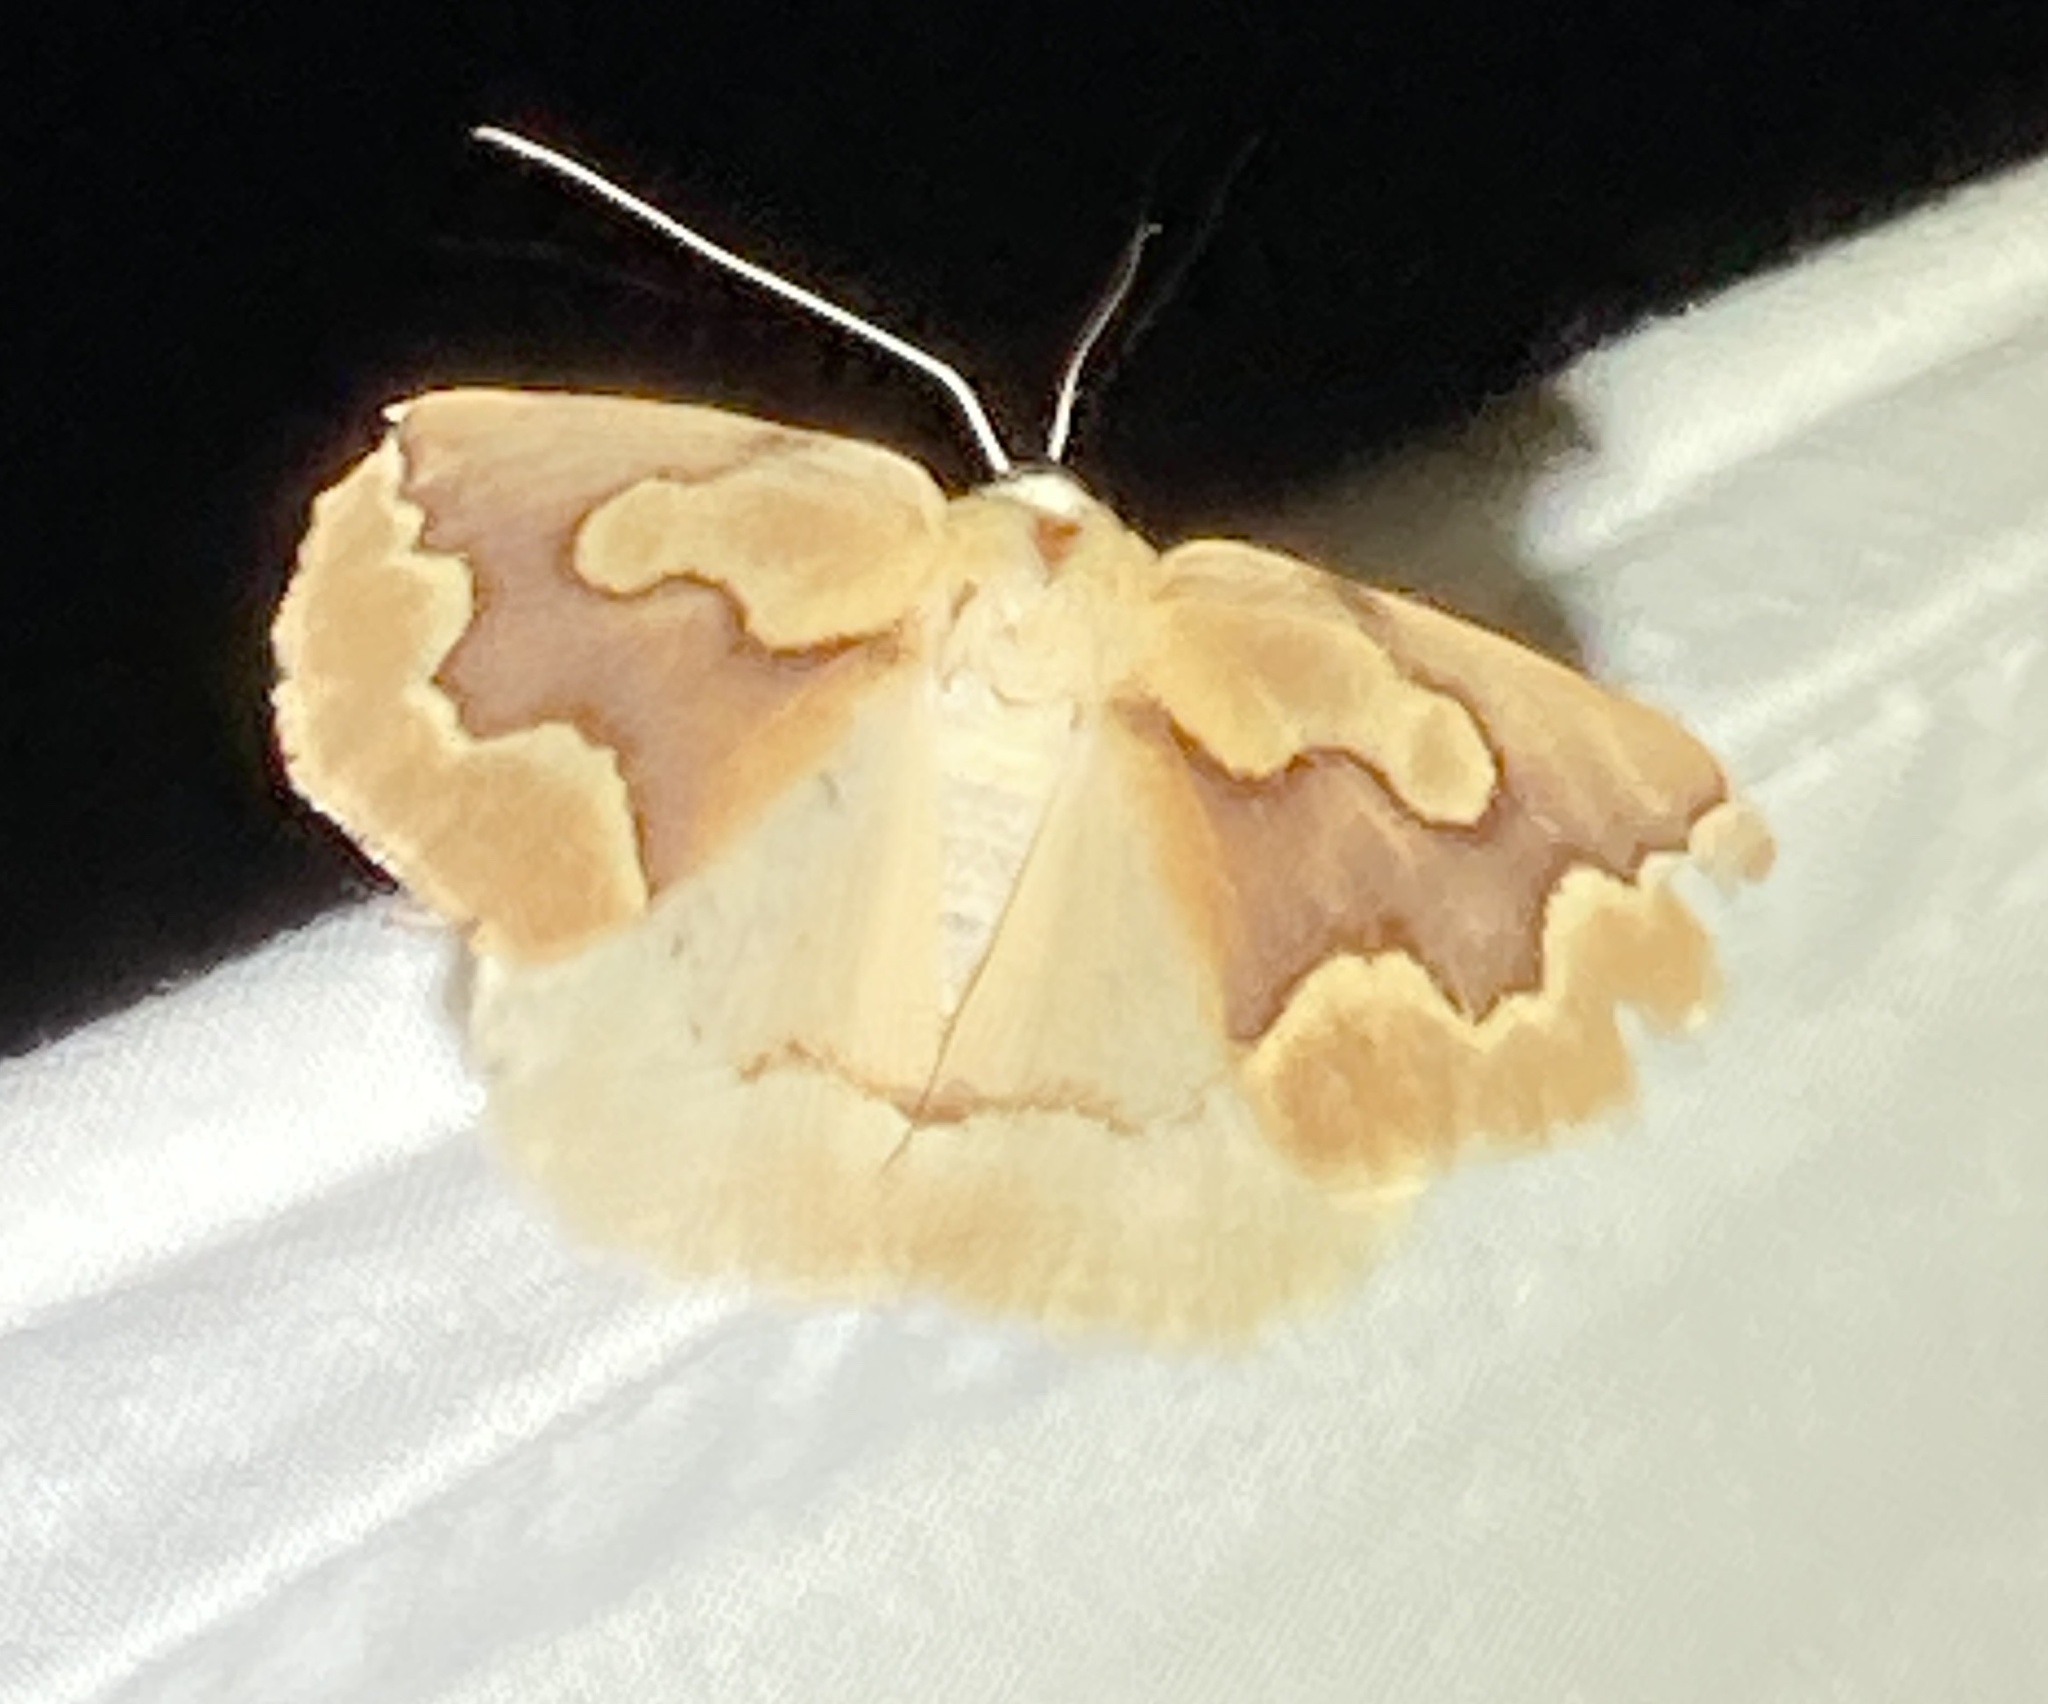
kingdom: Animalia
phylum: Arthropoda
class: Insecta
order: Lepidoptera
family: Geometridae
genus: Sabulodes
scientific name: Sabulodes edwardsata
